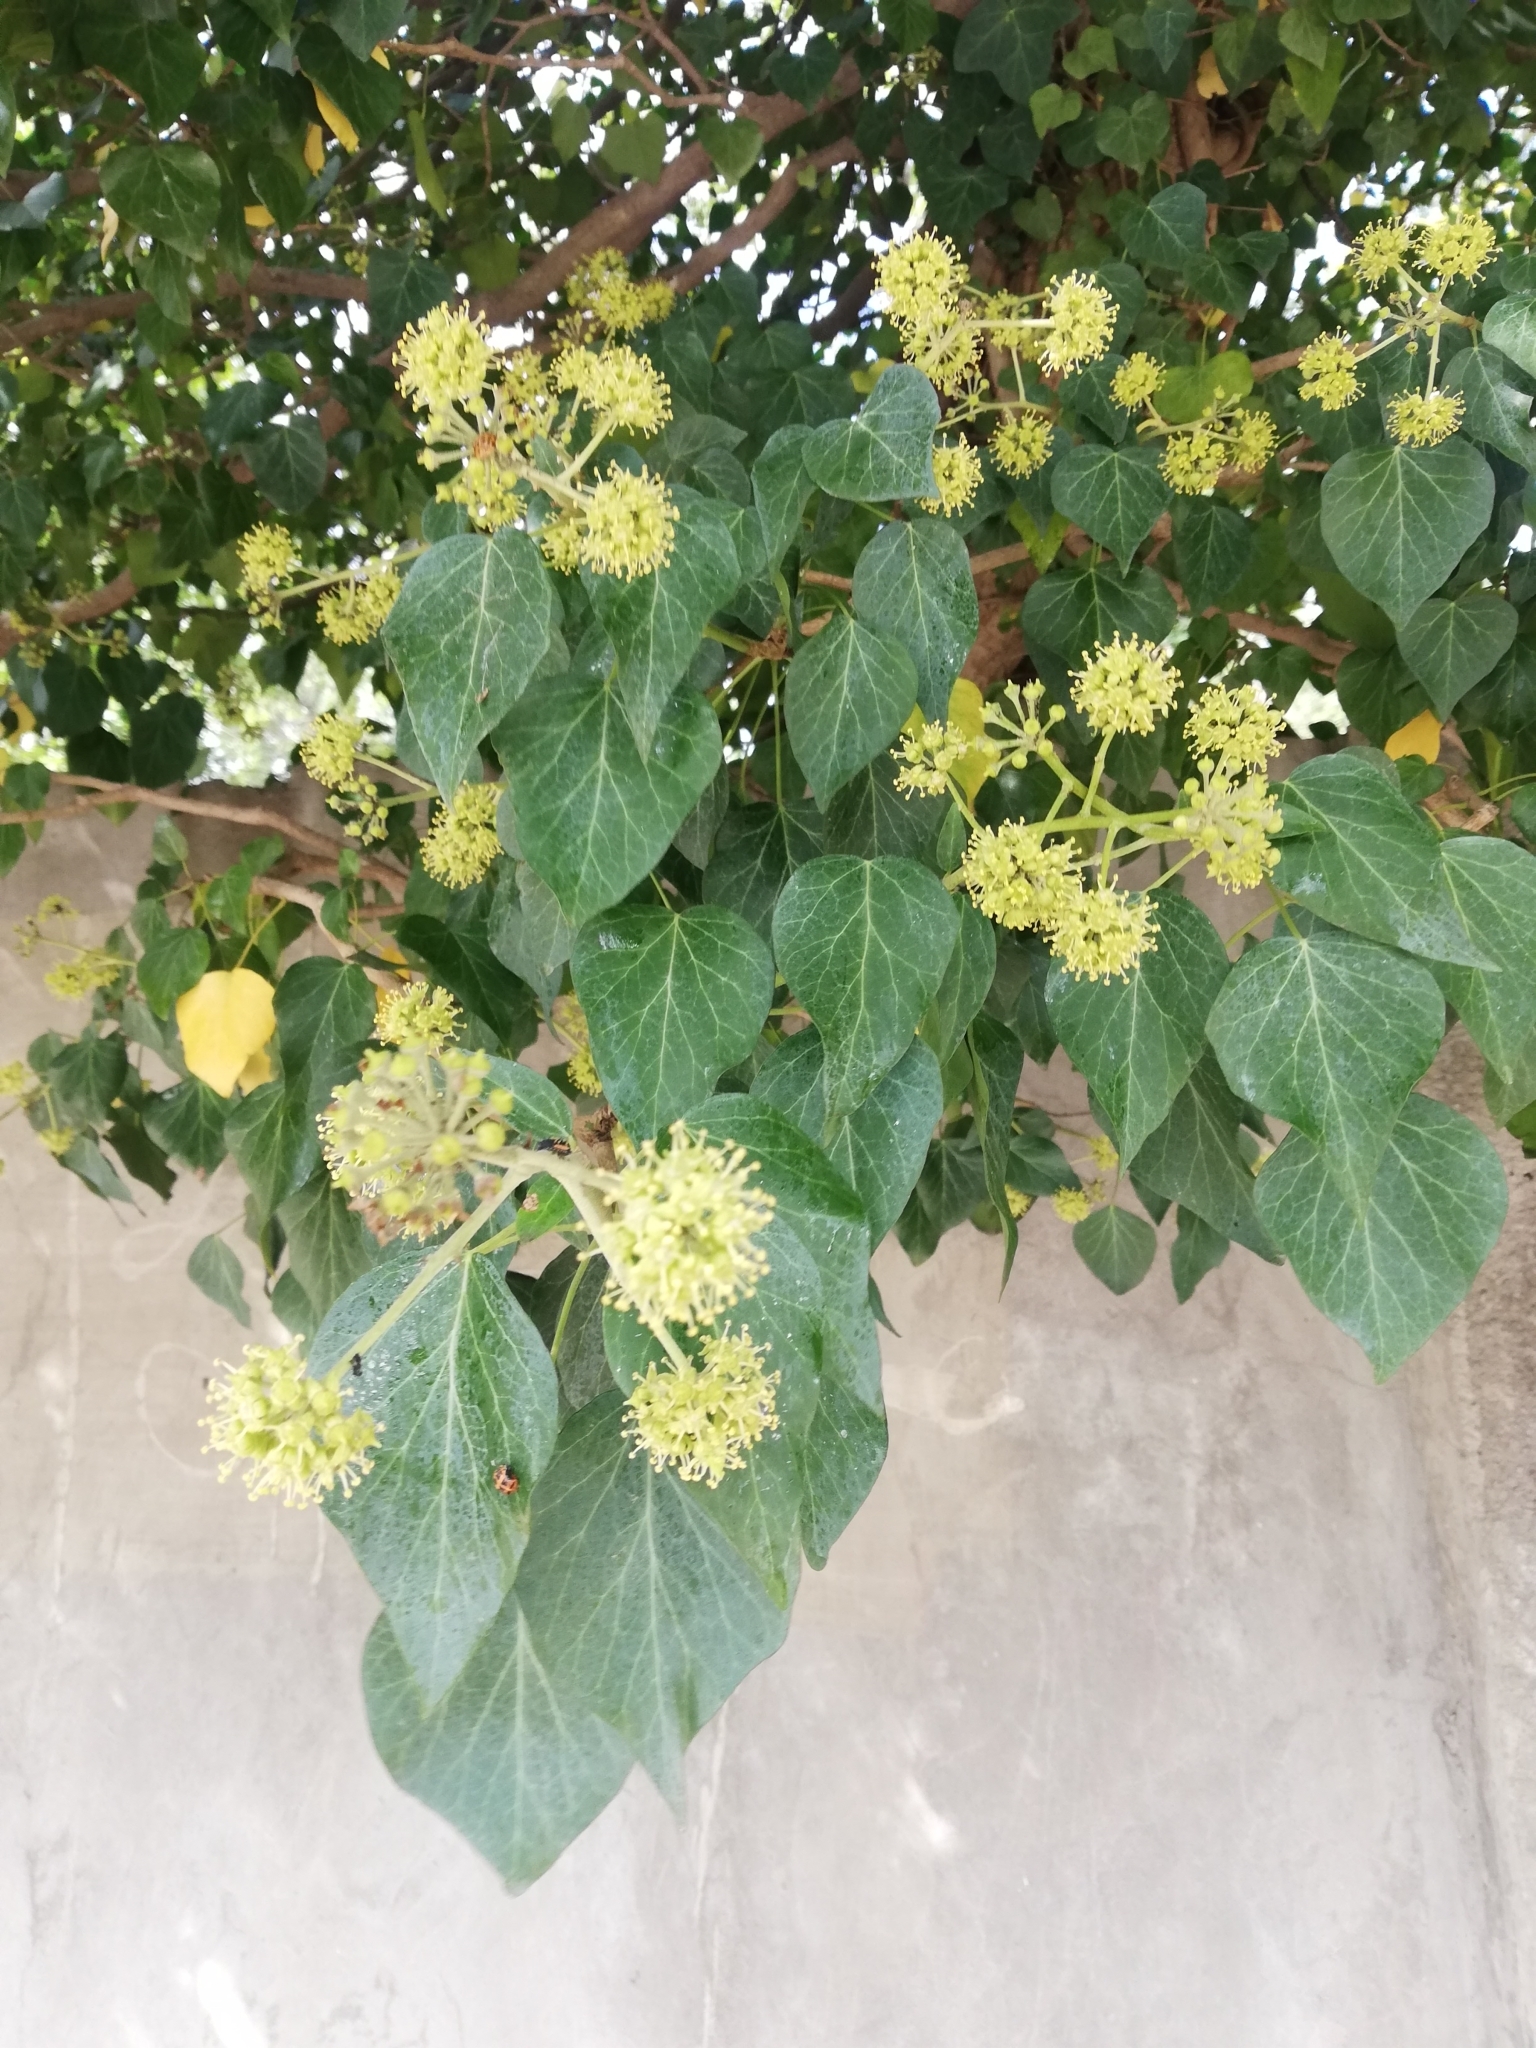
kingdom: Plantae
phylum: Tracheophyta
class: Magnoliopsida
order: Apiales
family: Araliaceae
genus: Hedera
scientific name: Hedera helix
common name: Ivy
